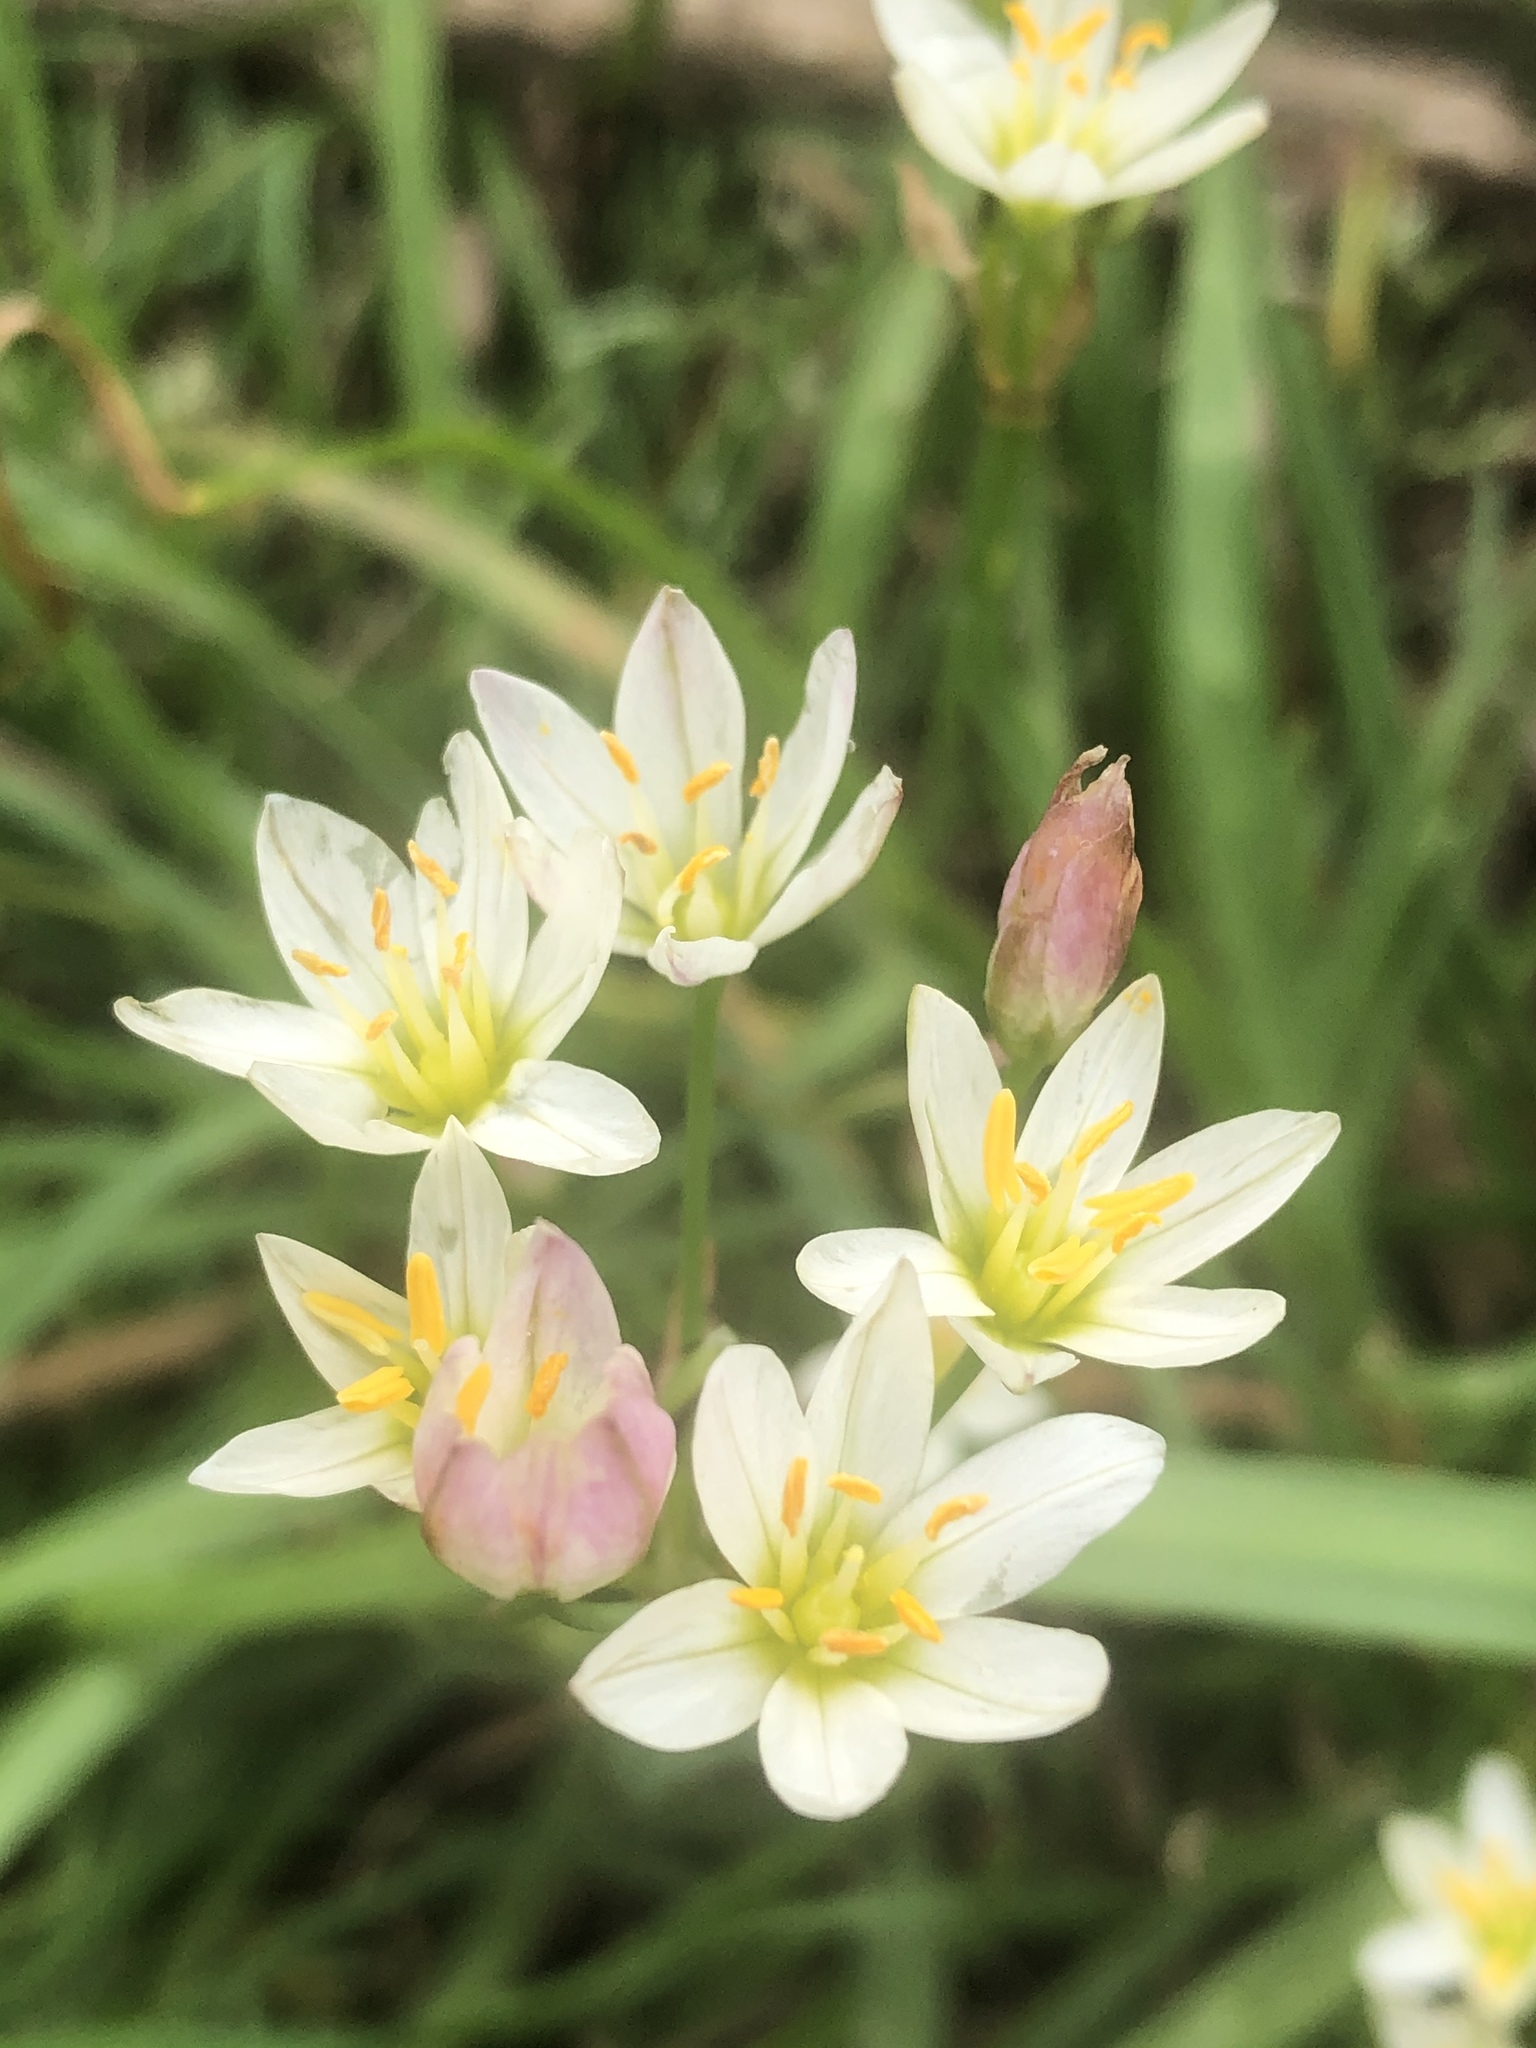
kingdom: Plantae
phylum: Tracheophyta
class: Liliopsida
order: Asparagales
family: Amaryllidaceae
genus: Nothoscordum
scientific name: Nothoscordum bivalve
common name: Crow-poison
